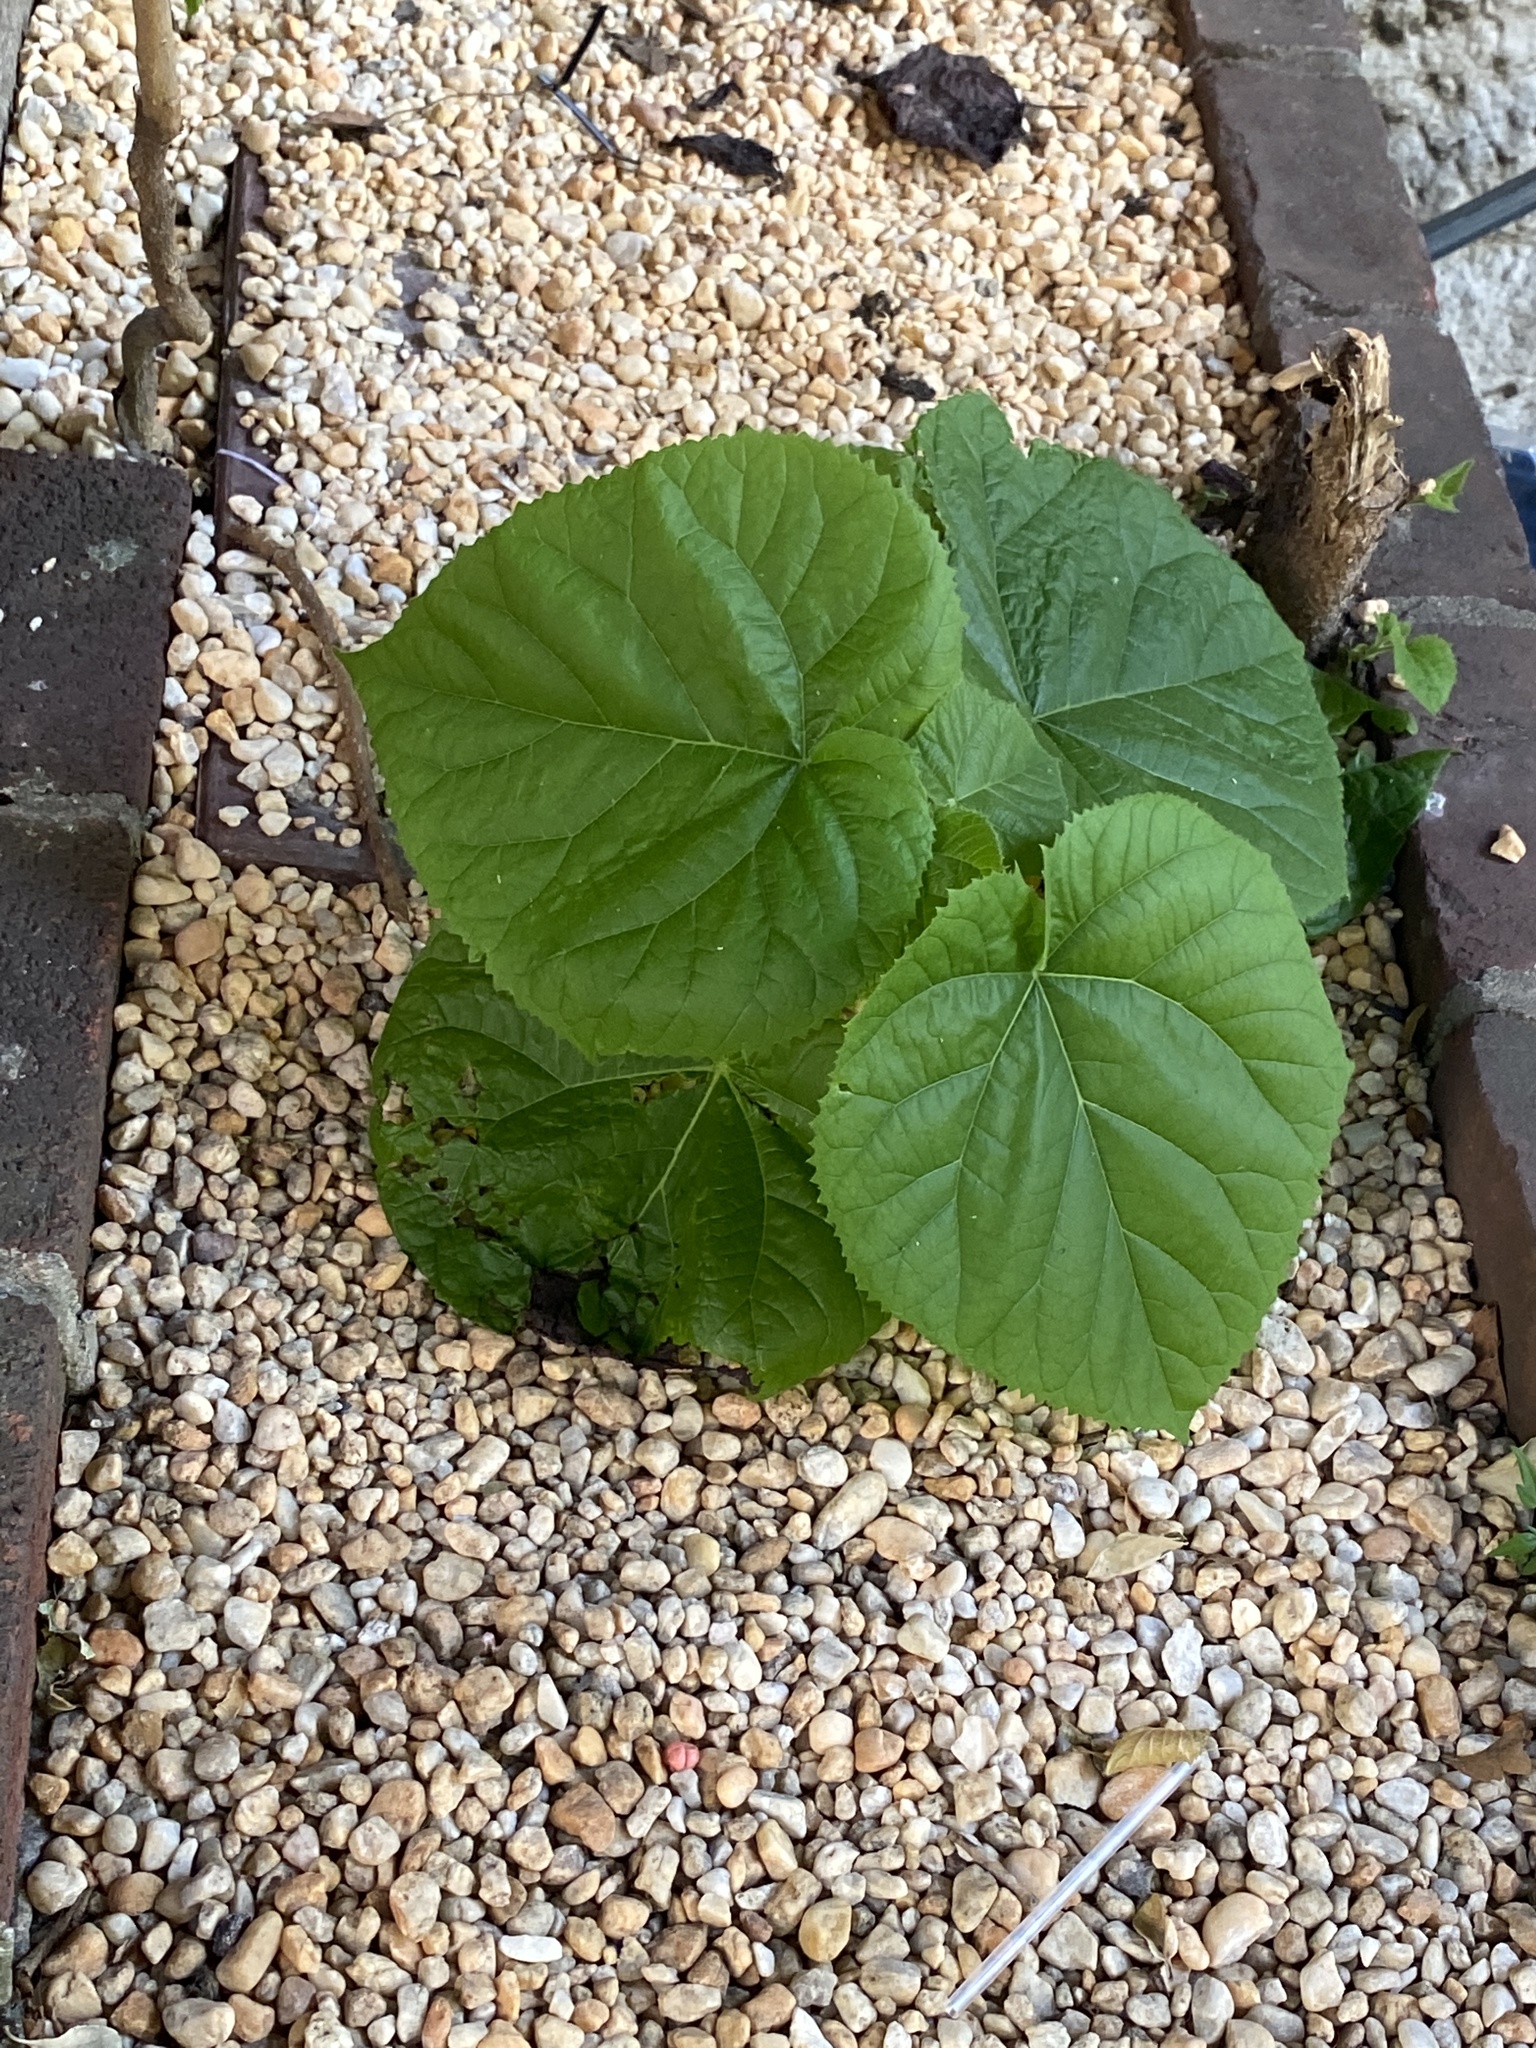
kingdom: Plantae
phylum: Tracheophyta
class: Magnoliopsida
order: Lamiales
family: Paulowniaceae
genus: Paulownia
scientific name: Paulownia tomentosa
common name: Foxglove-tree
